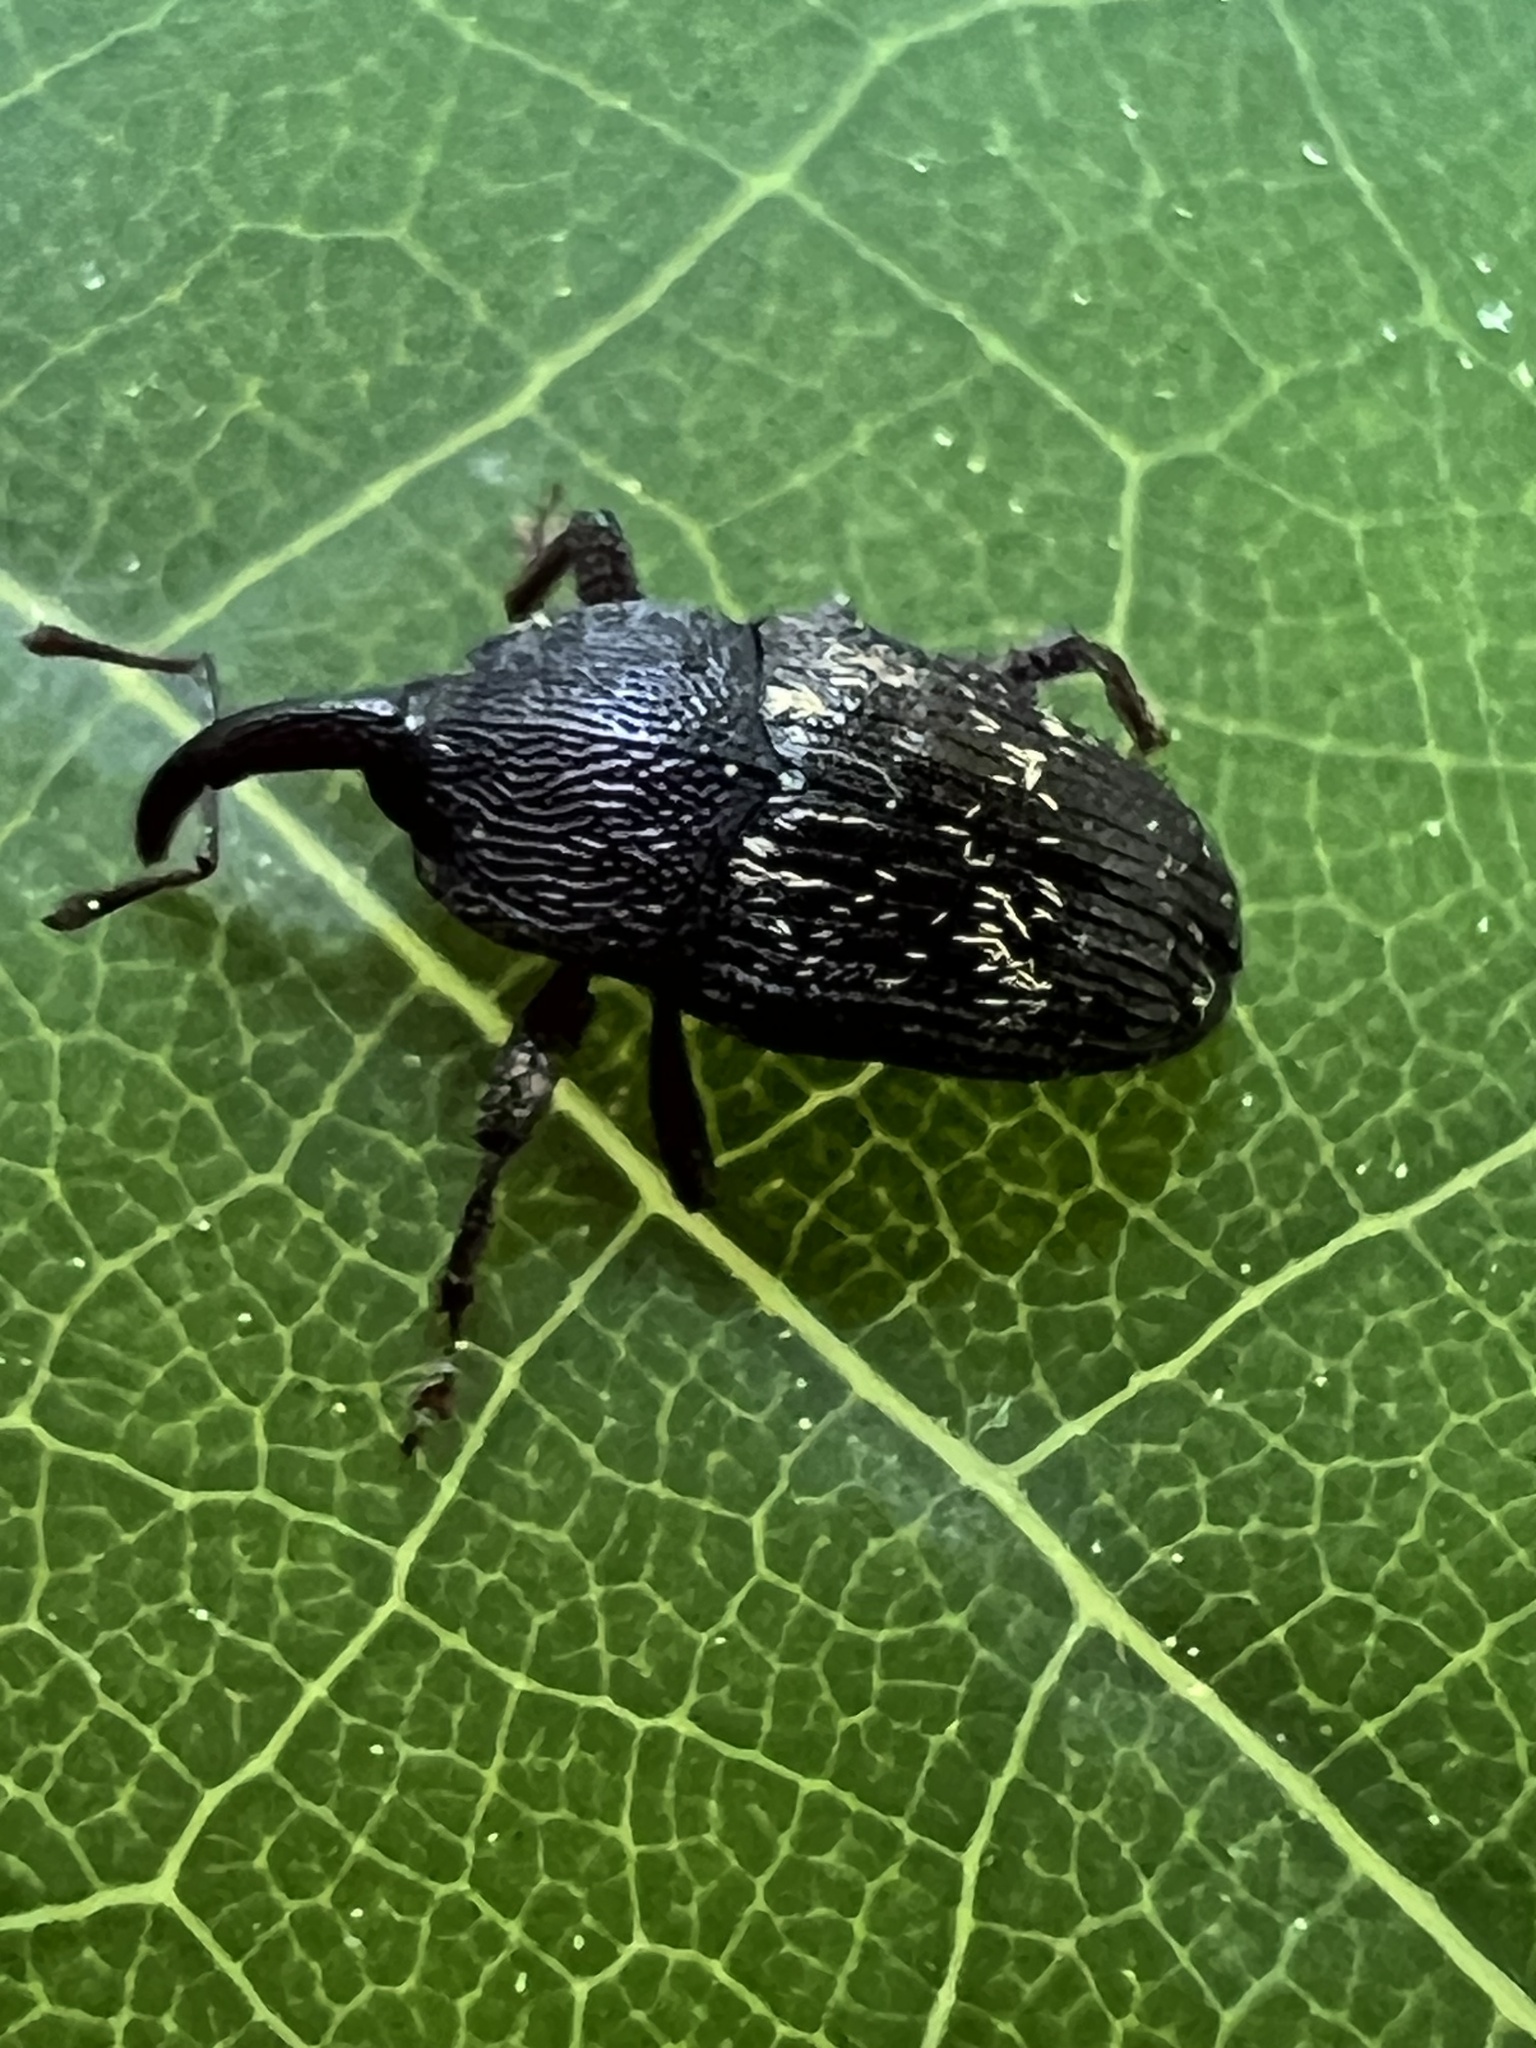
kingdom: Animalia
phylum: Arthropoda
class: Insecta
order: Coleoptera
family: Curculionidae
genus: Glyptobaris
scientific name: Glyptobaris lecontei
